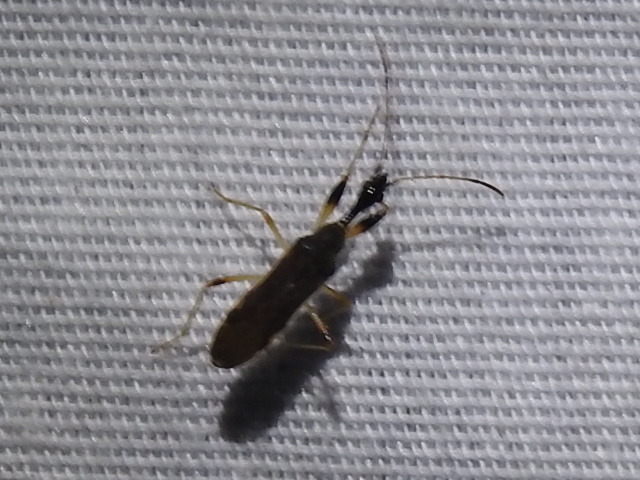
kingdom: Animalia
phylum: Arthropoda
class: Insecta
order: Hemiptera
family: Rhyparochromidae
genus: Myodocha
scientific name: Myodocha serripes
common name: Long-necked seed bug
